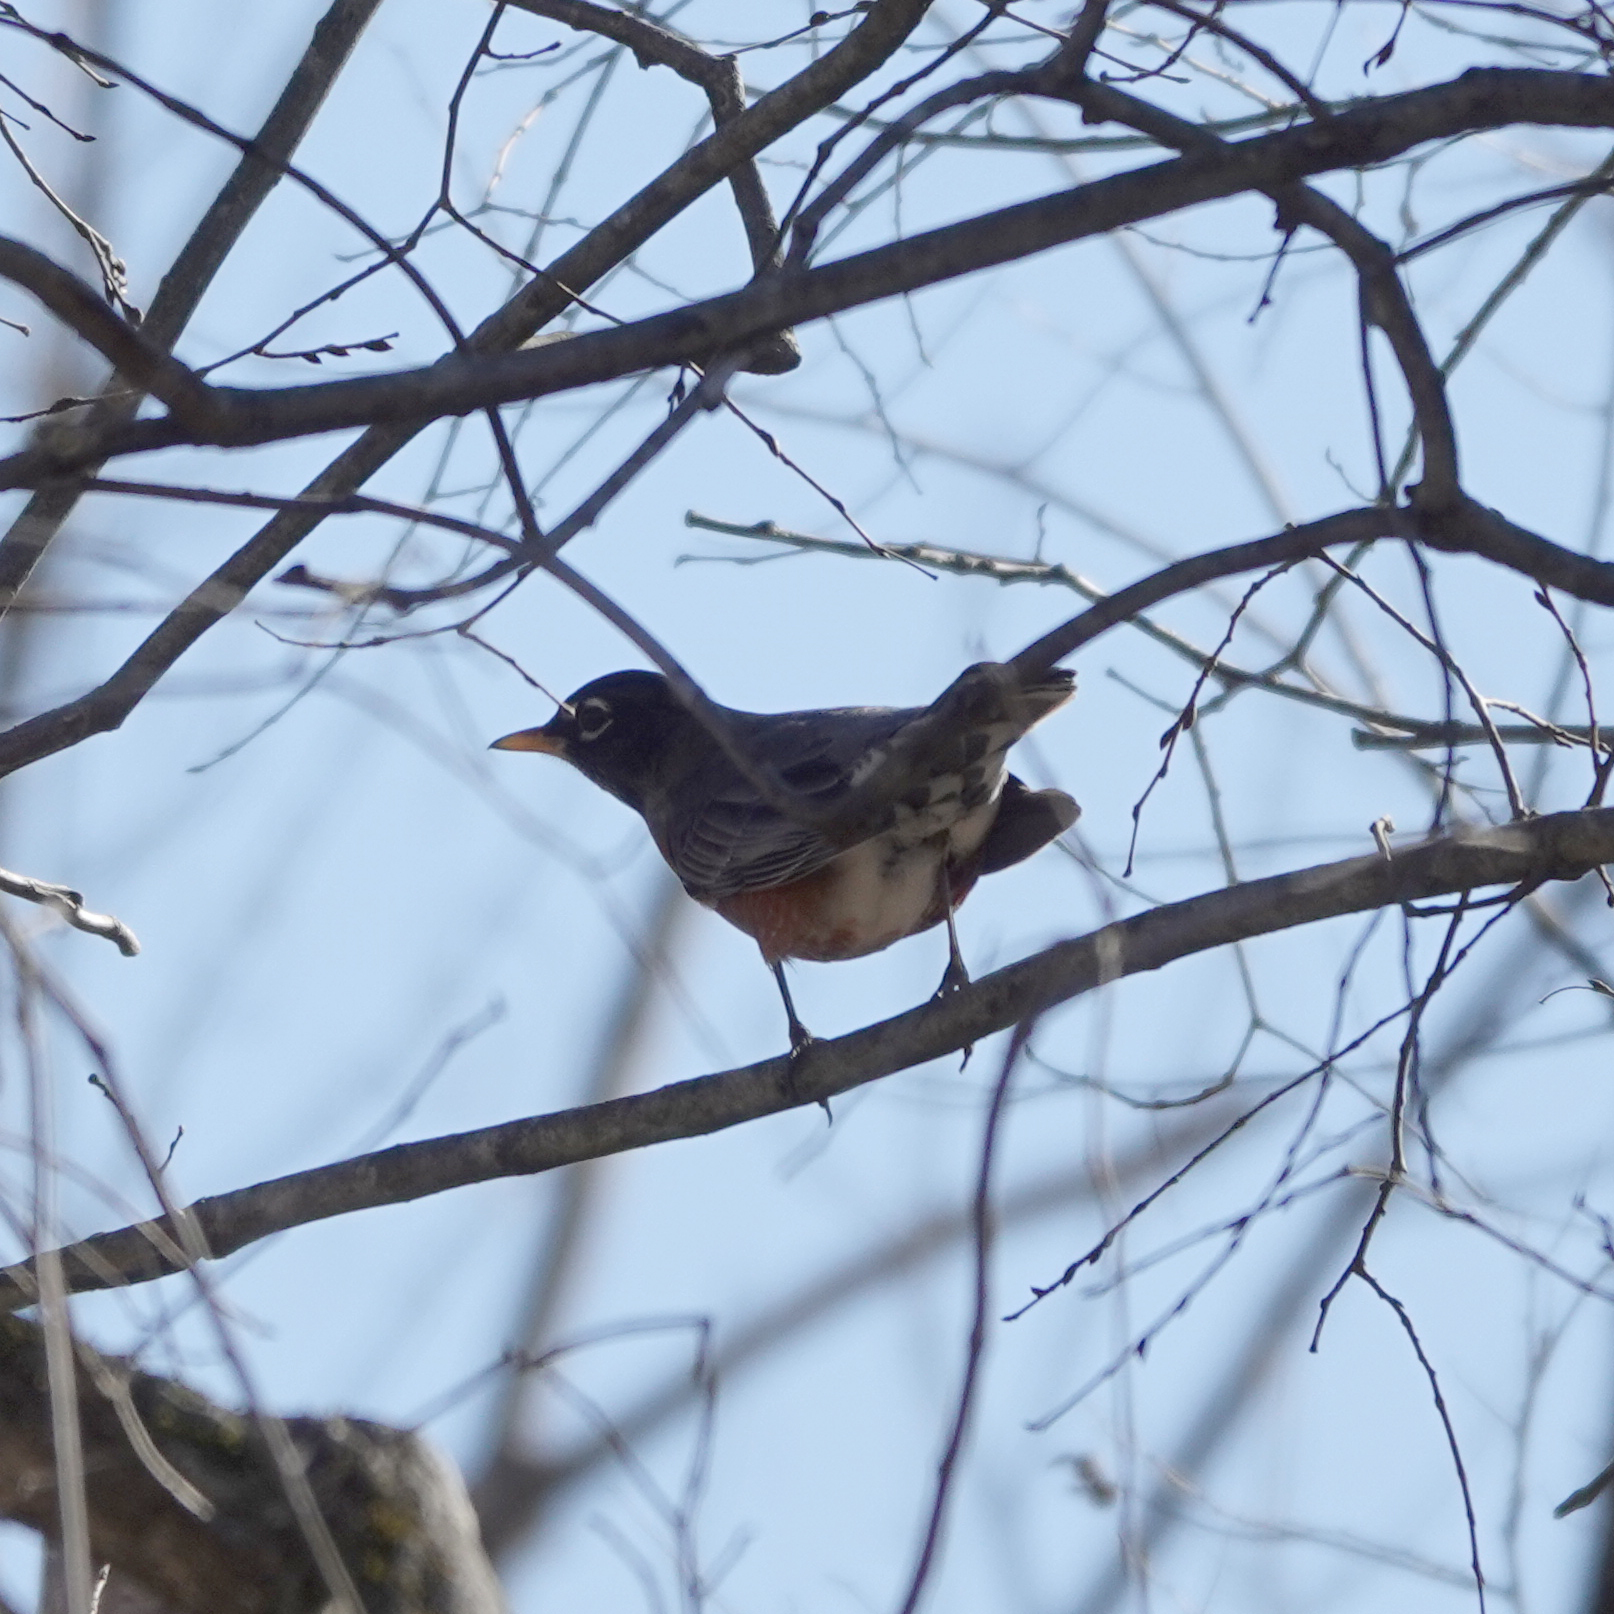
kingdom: Animalia
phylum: Chordata
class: Aves
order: Passeriformes
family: Turdidae
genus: Turdus
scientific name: Turdus migratorius
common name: American robin
